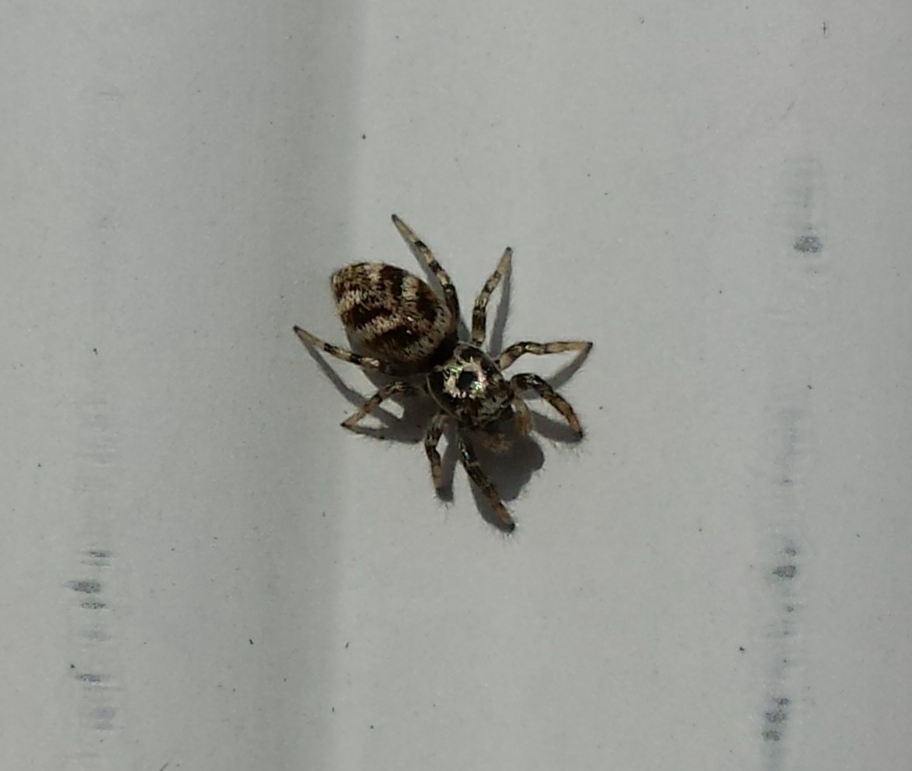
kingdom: Animalia
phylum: Arthropoda
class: Arachnida
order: Araneae
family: Salticidae
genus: Salticus
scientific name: Salticus scenicus
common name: Zebra jumper
